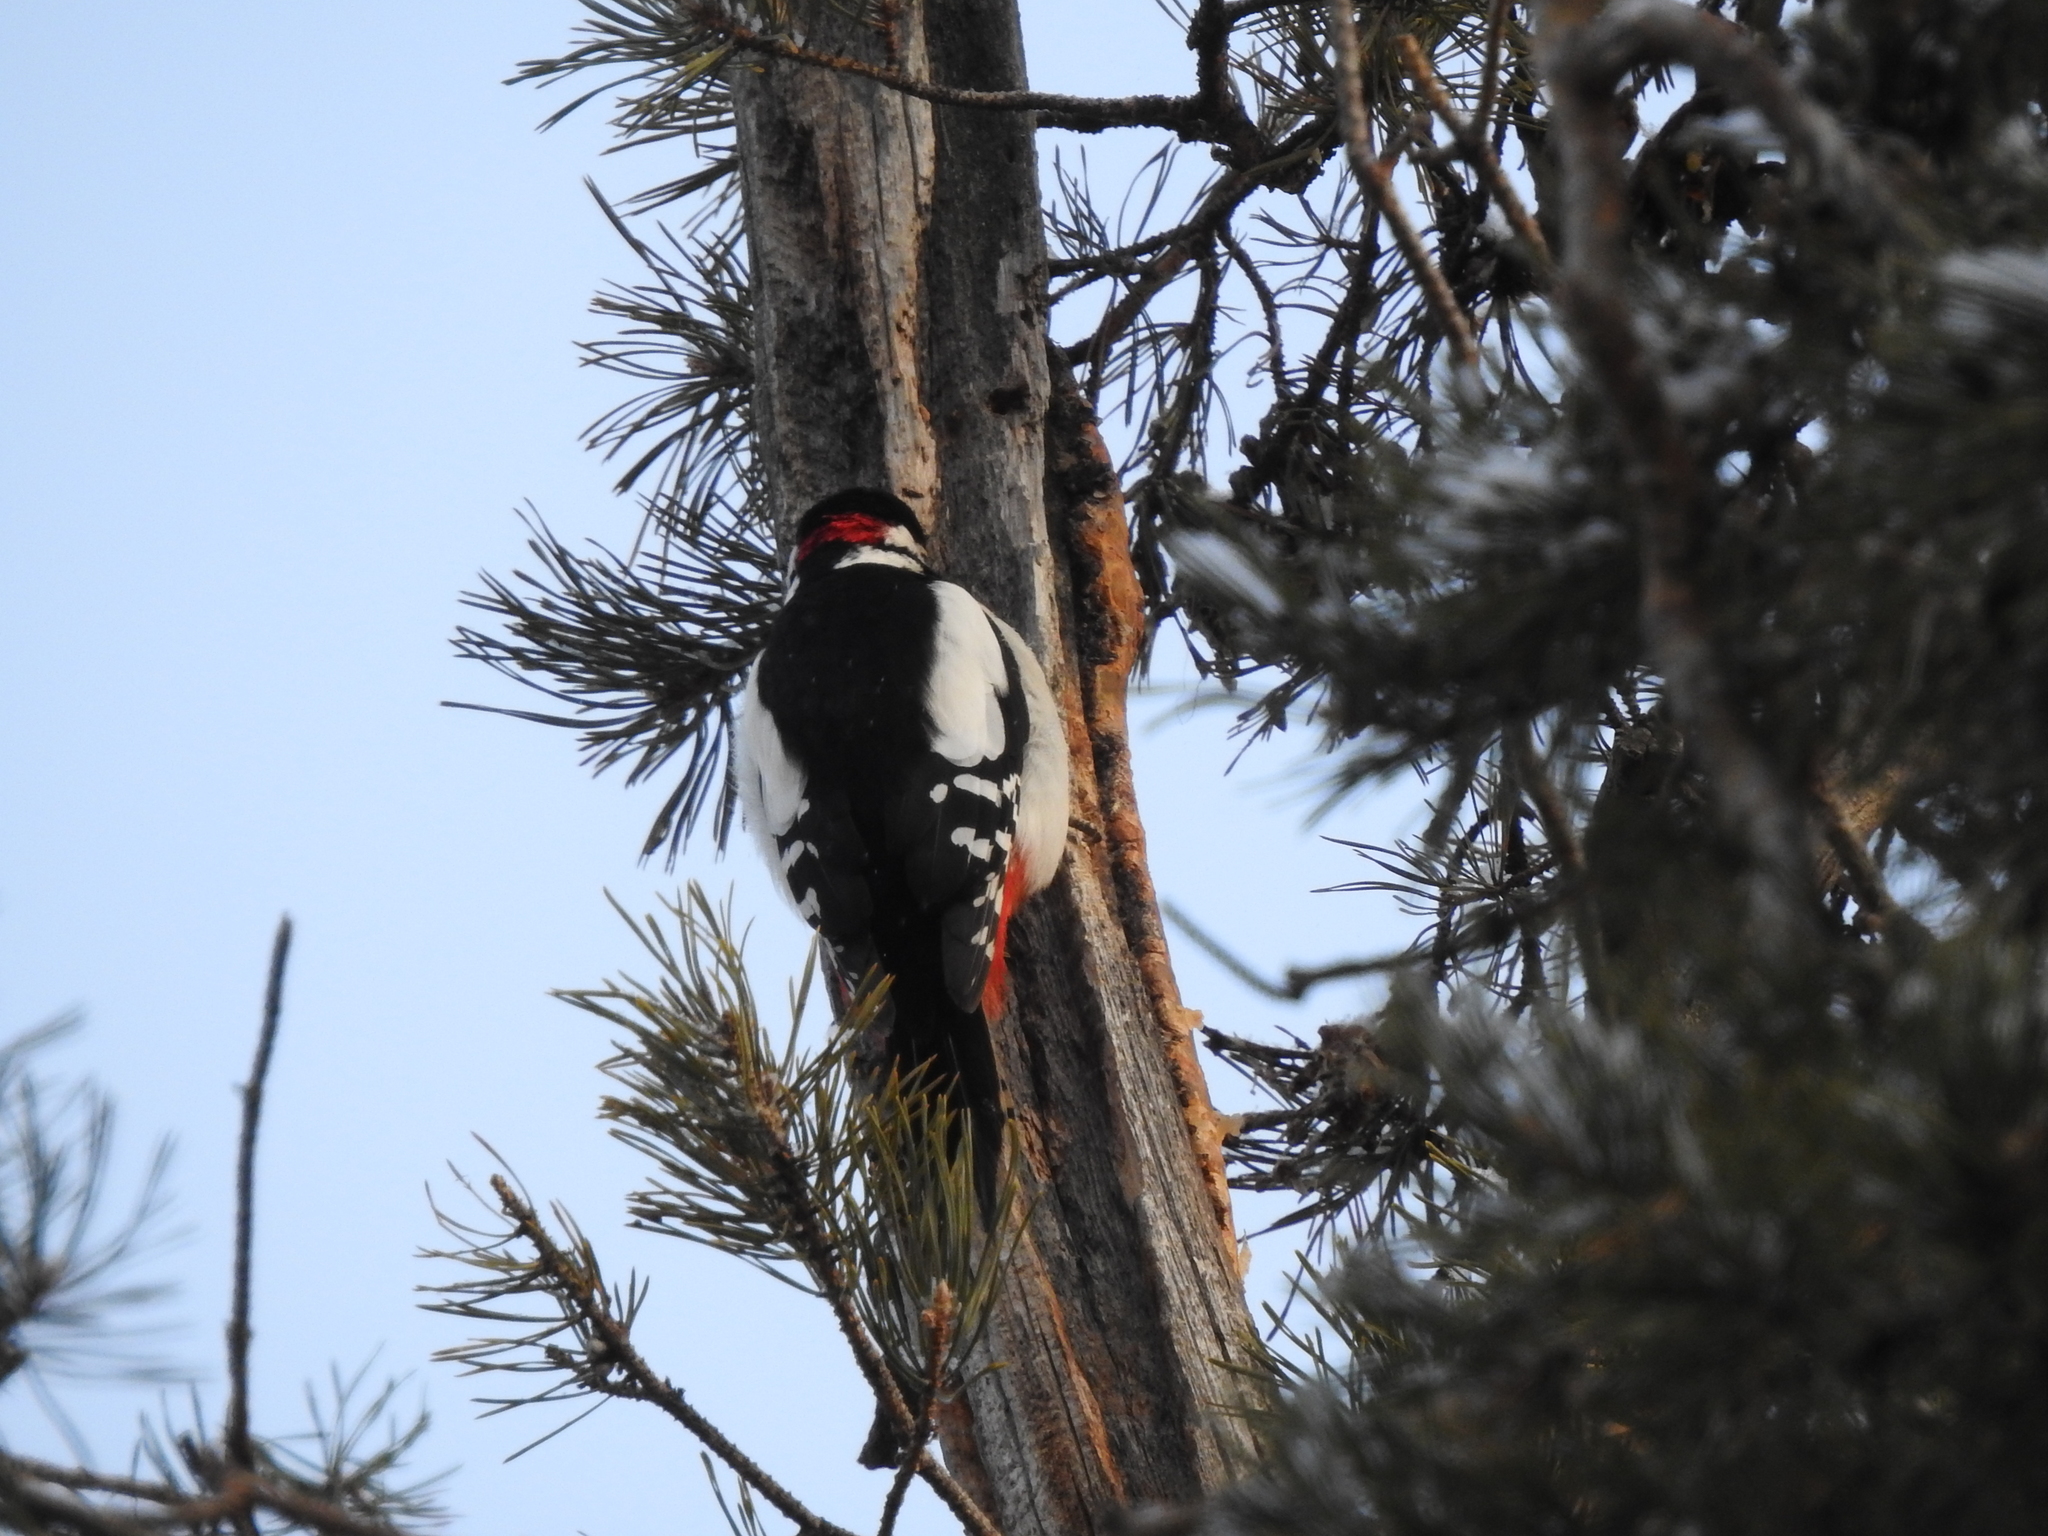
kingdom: Animalia
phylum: Chordata
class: Aves
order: Piciformes
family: Picidae
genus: Dendrocopos
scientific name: Dendrocopos major
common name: Great spotted woodpecker
